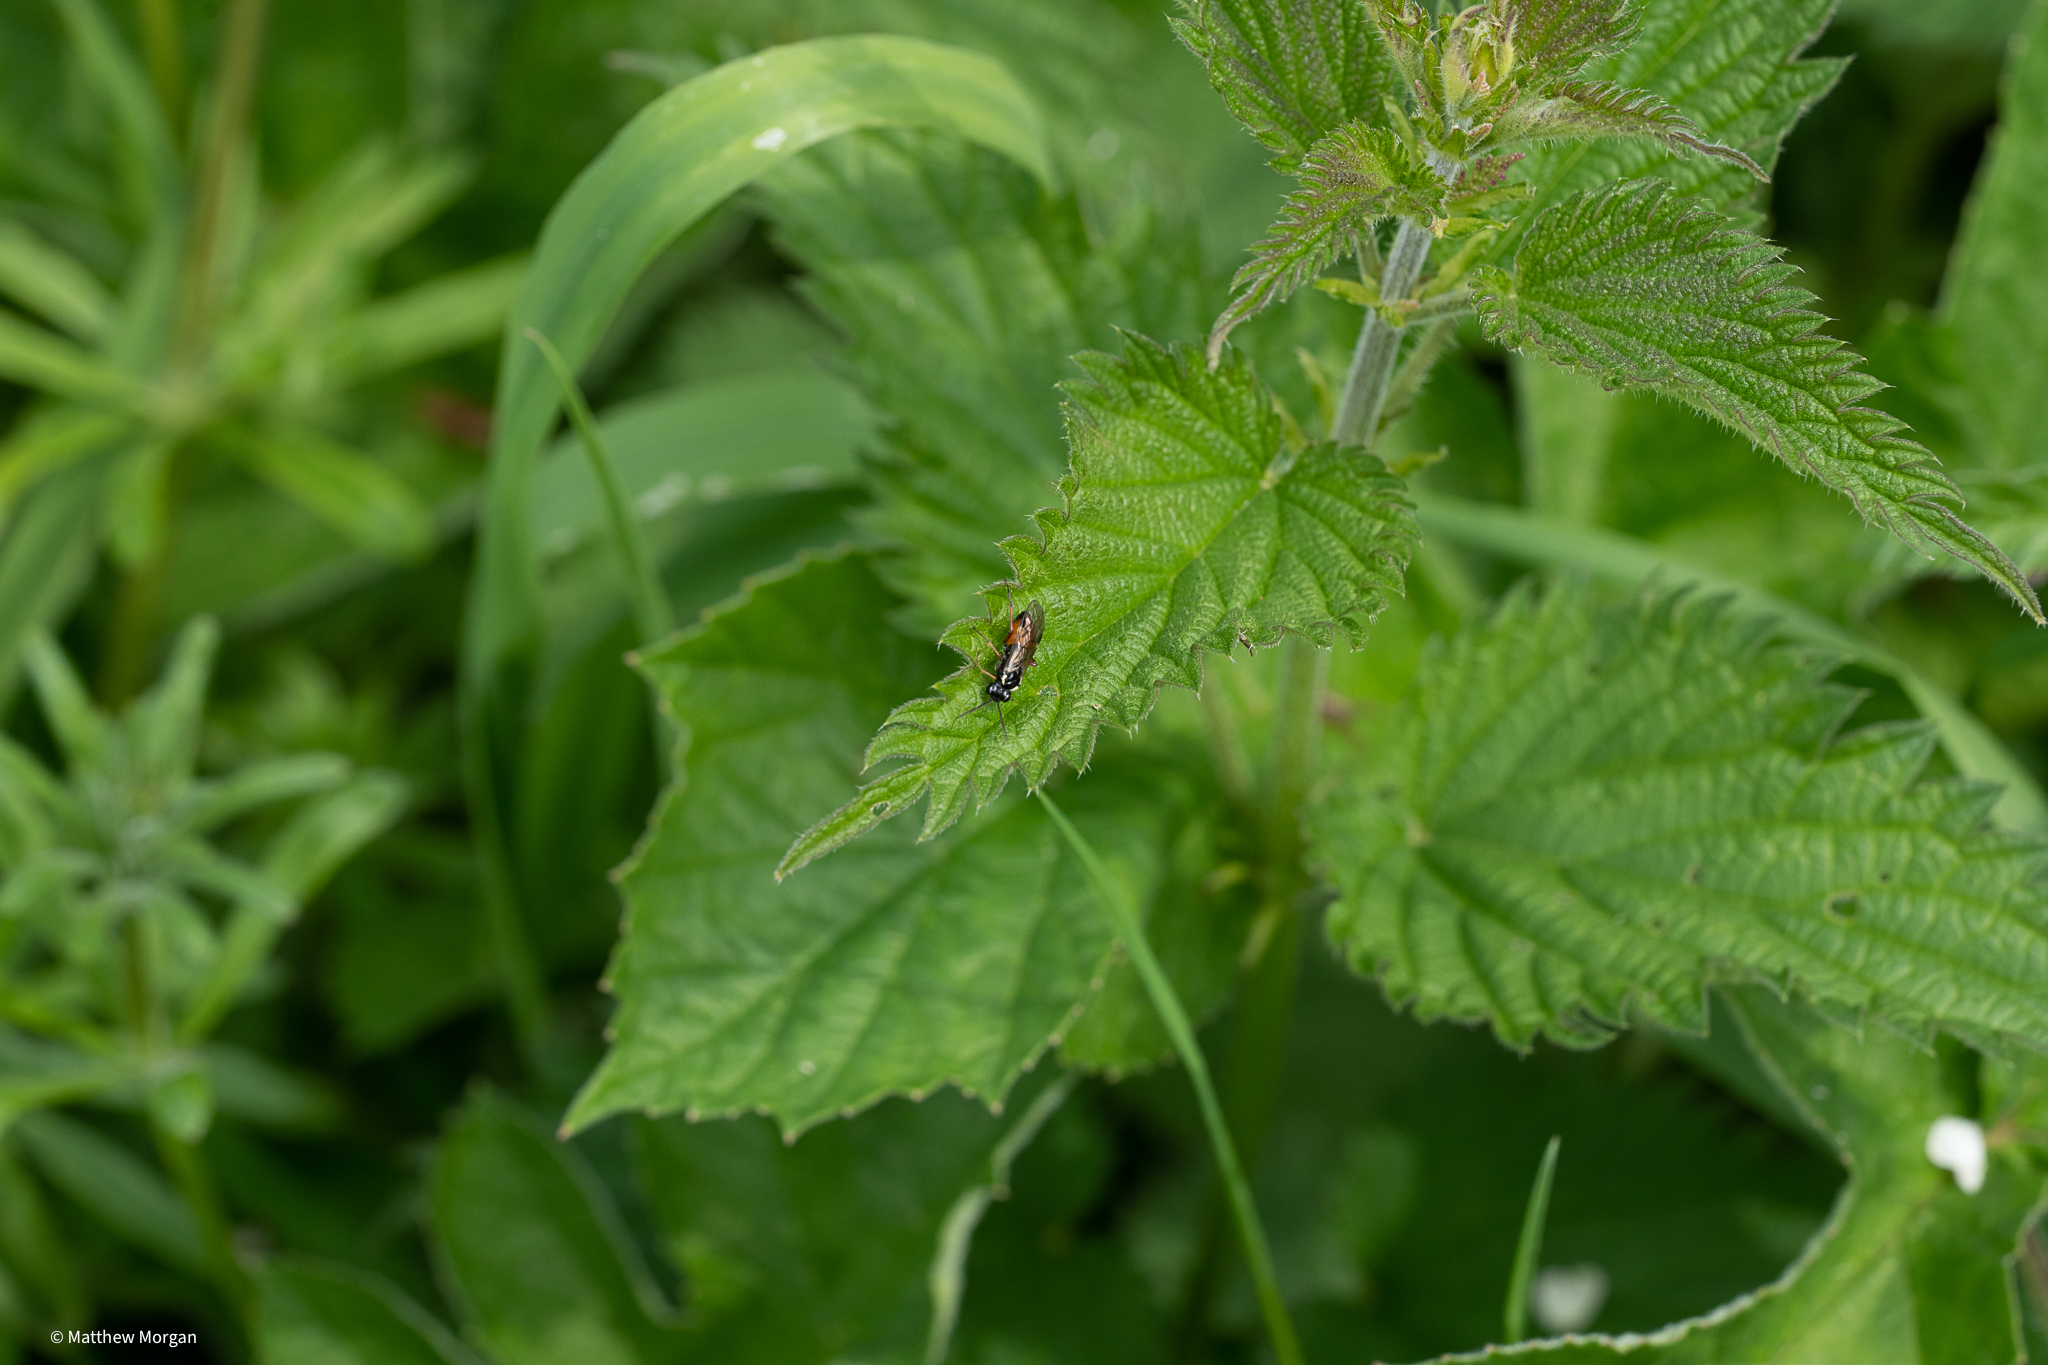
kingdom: Animalia
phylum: Arthropoda
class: Insecta
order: Hymenoptera
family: Tenthredinidae
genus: Aglaostigma
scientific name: Aglaostigma aucupariae
